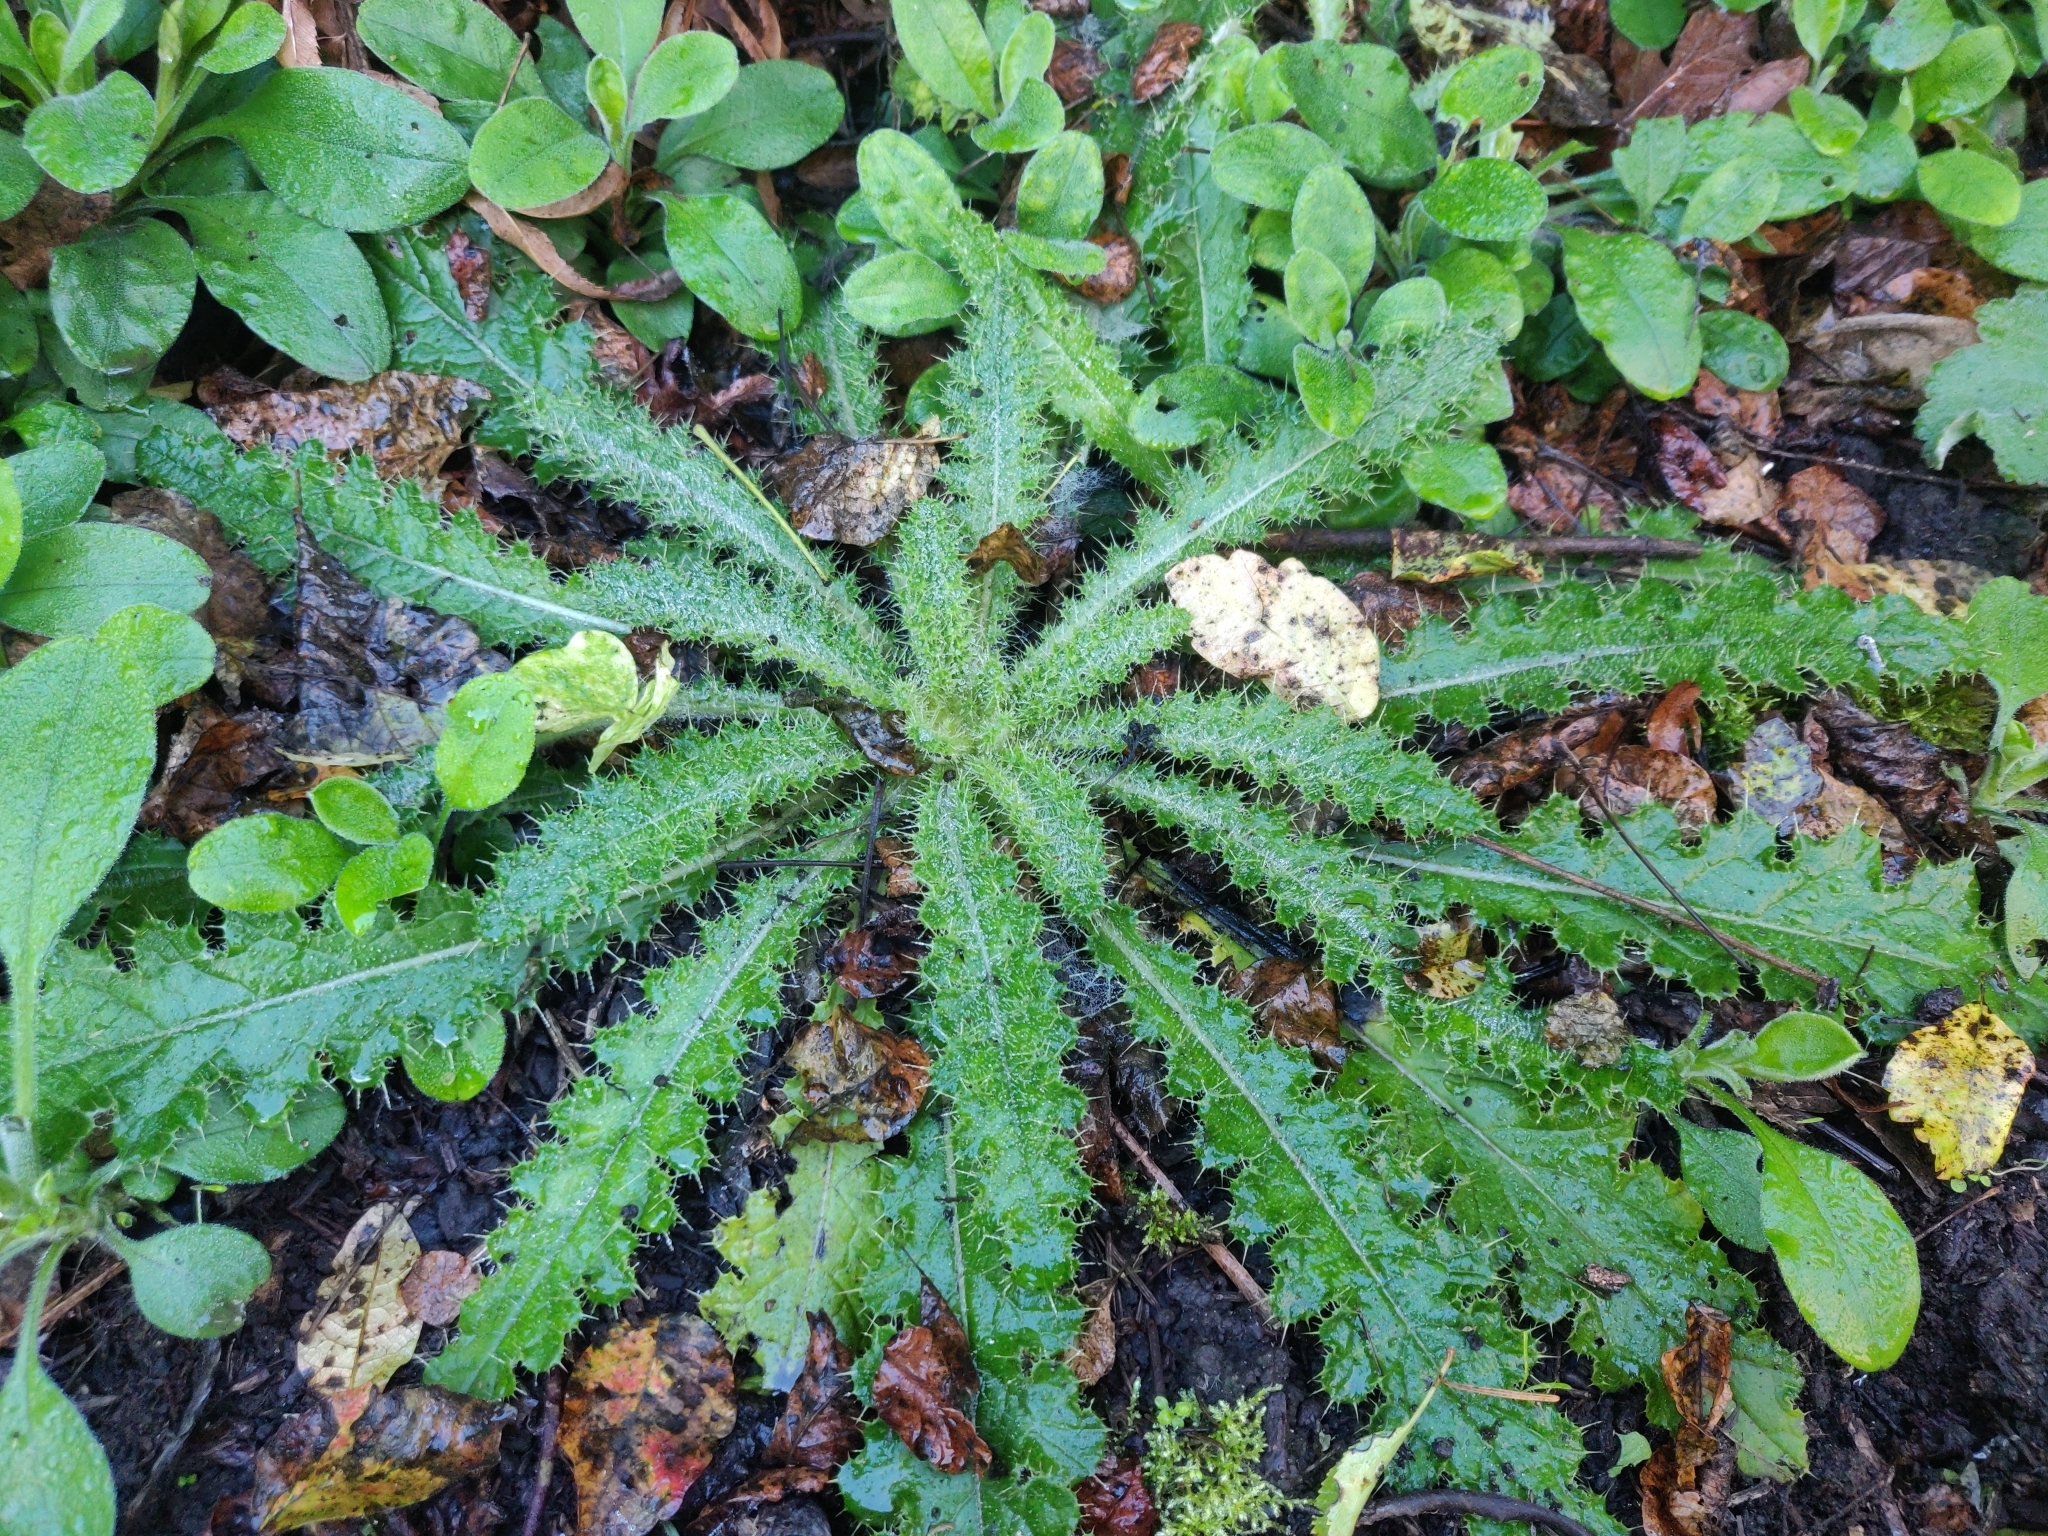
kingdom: Plantae
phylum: Tracheophyta
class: Magnoliopsida
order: Asterales
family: Asteraceae
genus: Cirsium
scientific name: Cirsium brevistylum
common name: Indian thistle
